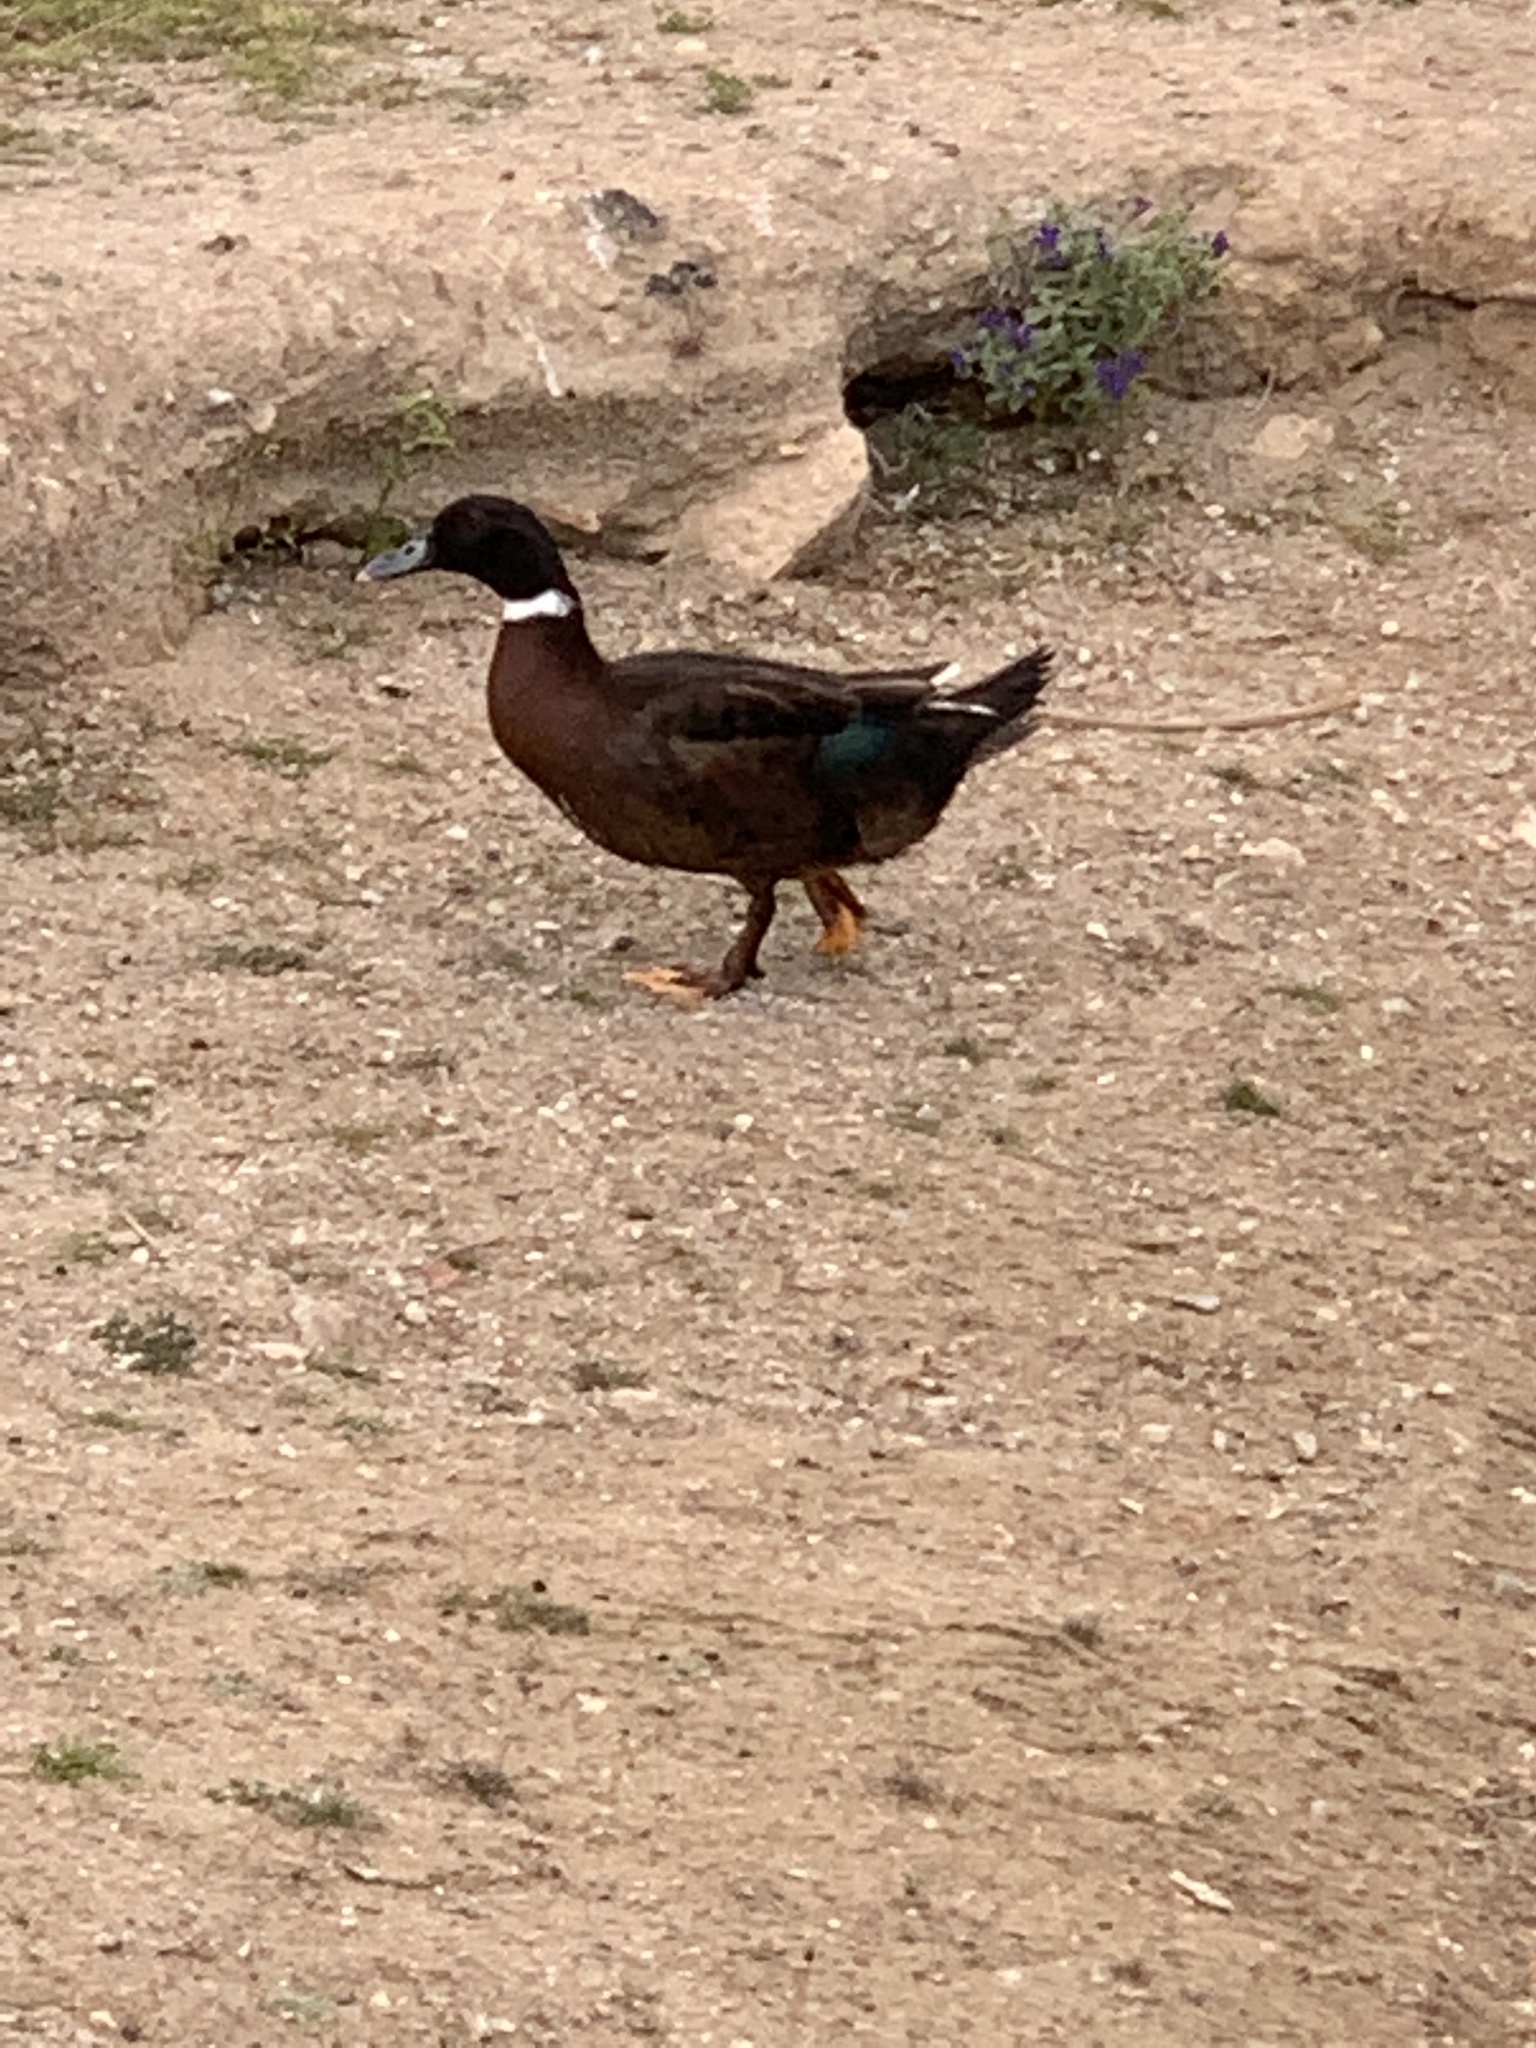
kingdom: Animalia
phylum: Chordata
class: Aves
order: Anseriformes
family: Anatidae
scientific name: Anatidae
